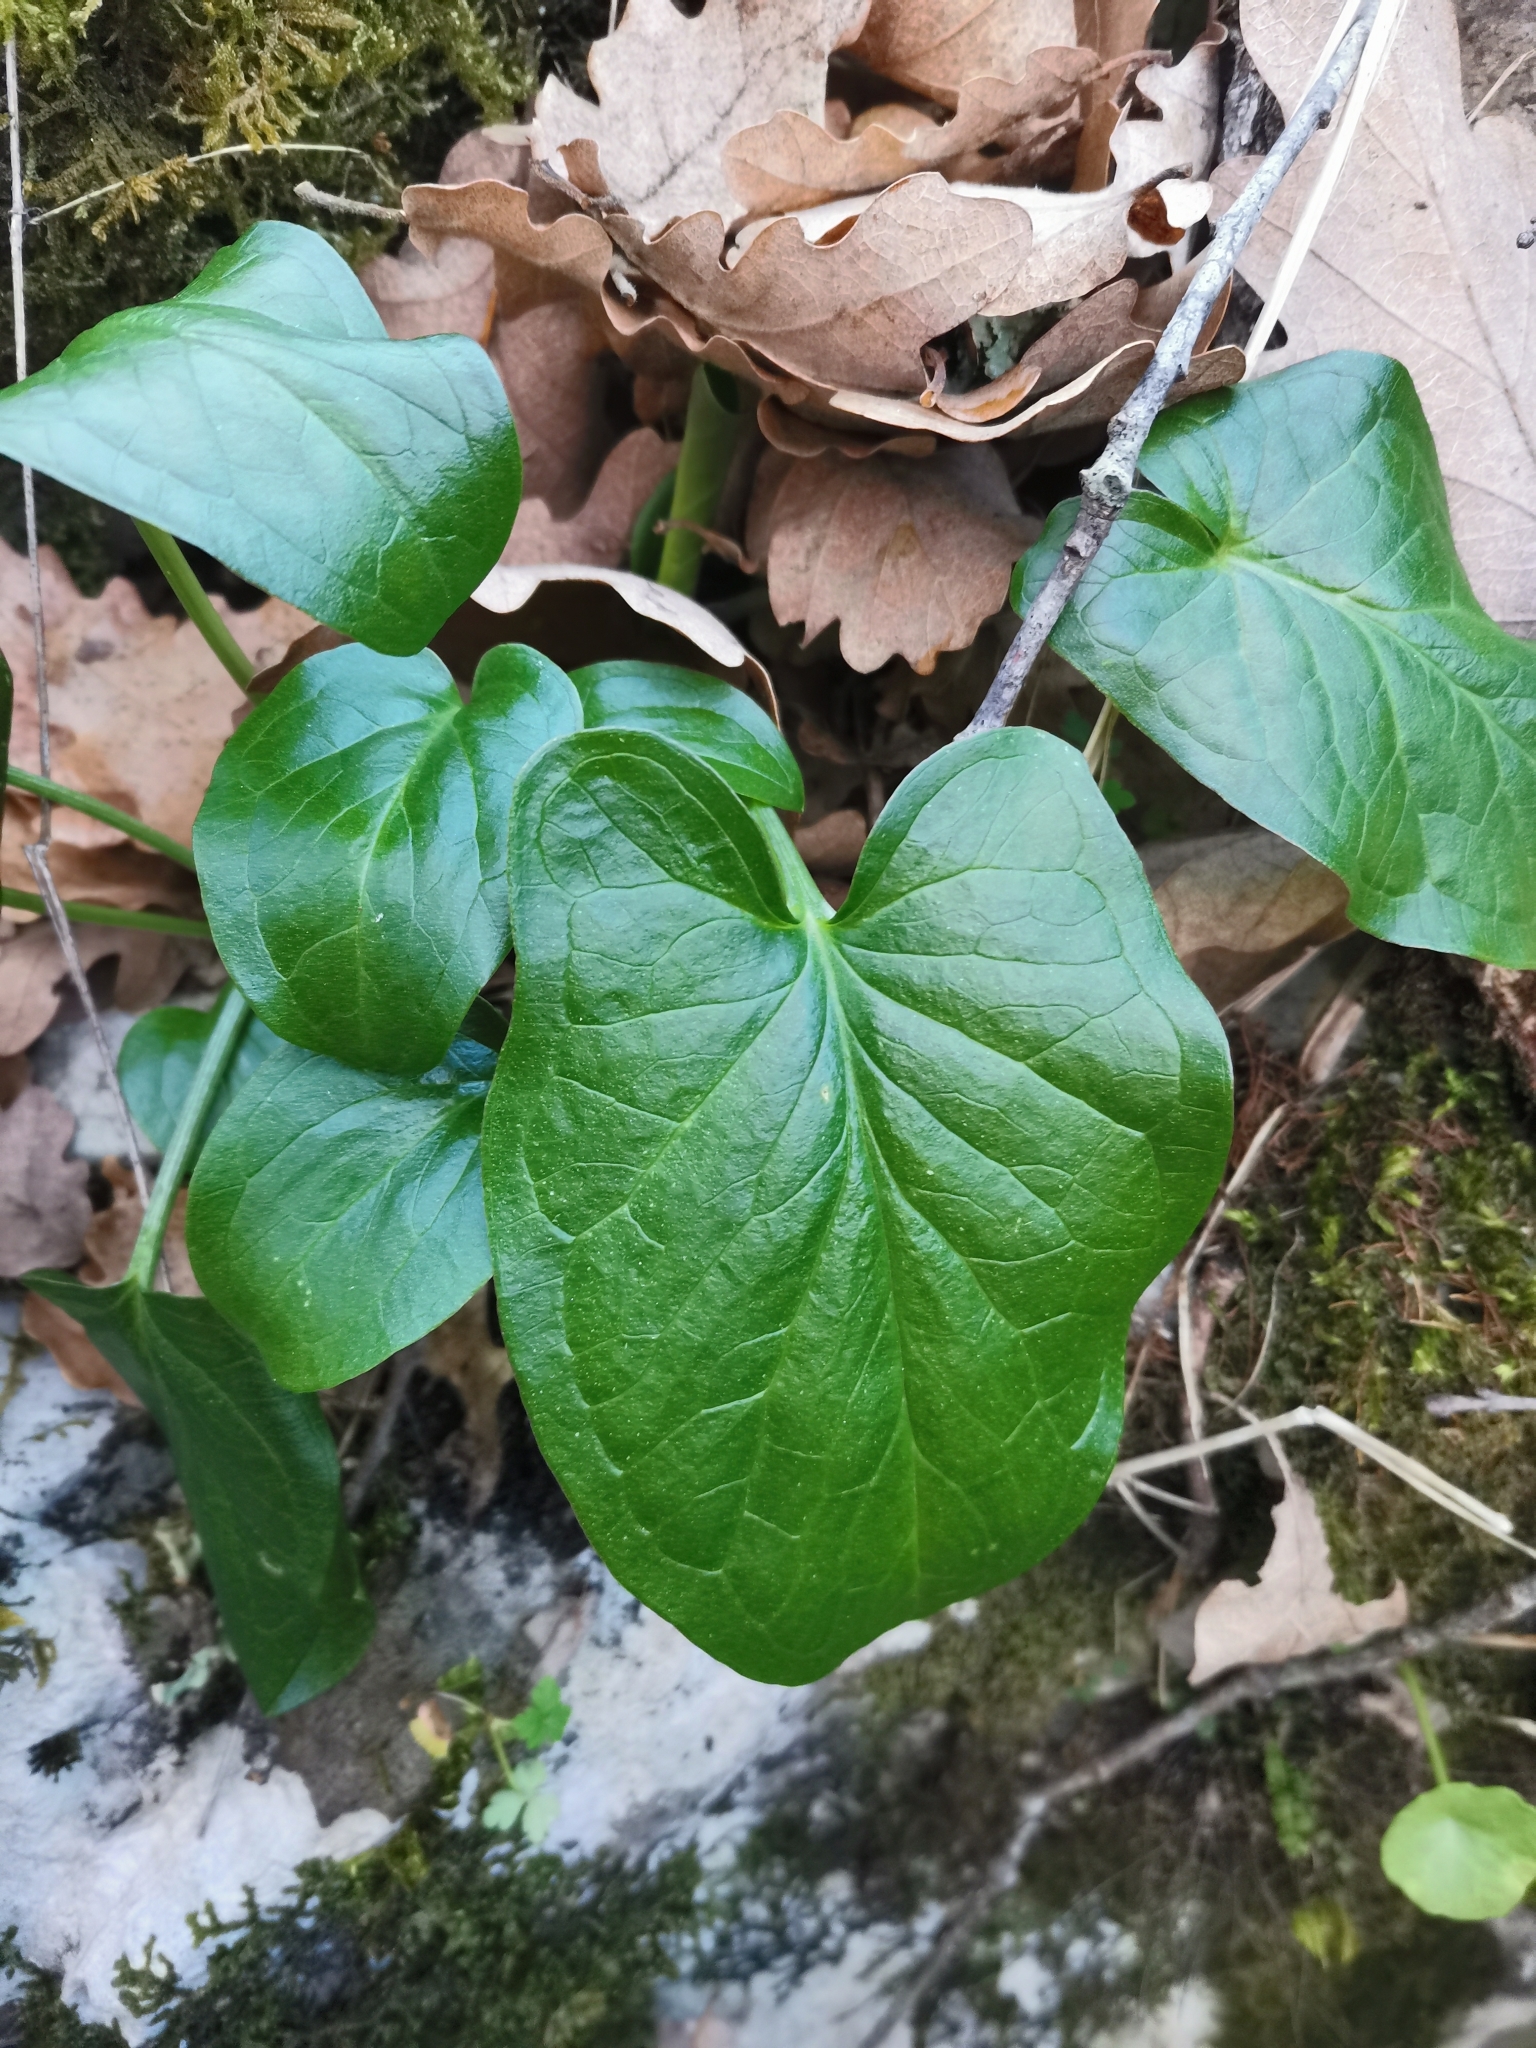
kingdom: Plantae
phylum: Tracheophyta
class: Liliopsida
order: Alismatales
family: Araceae
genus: Arum
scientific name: Arum maculatum
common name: Lords-and-ladies
